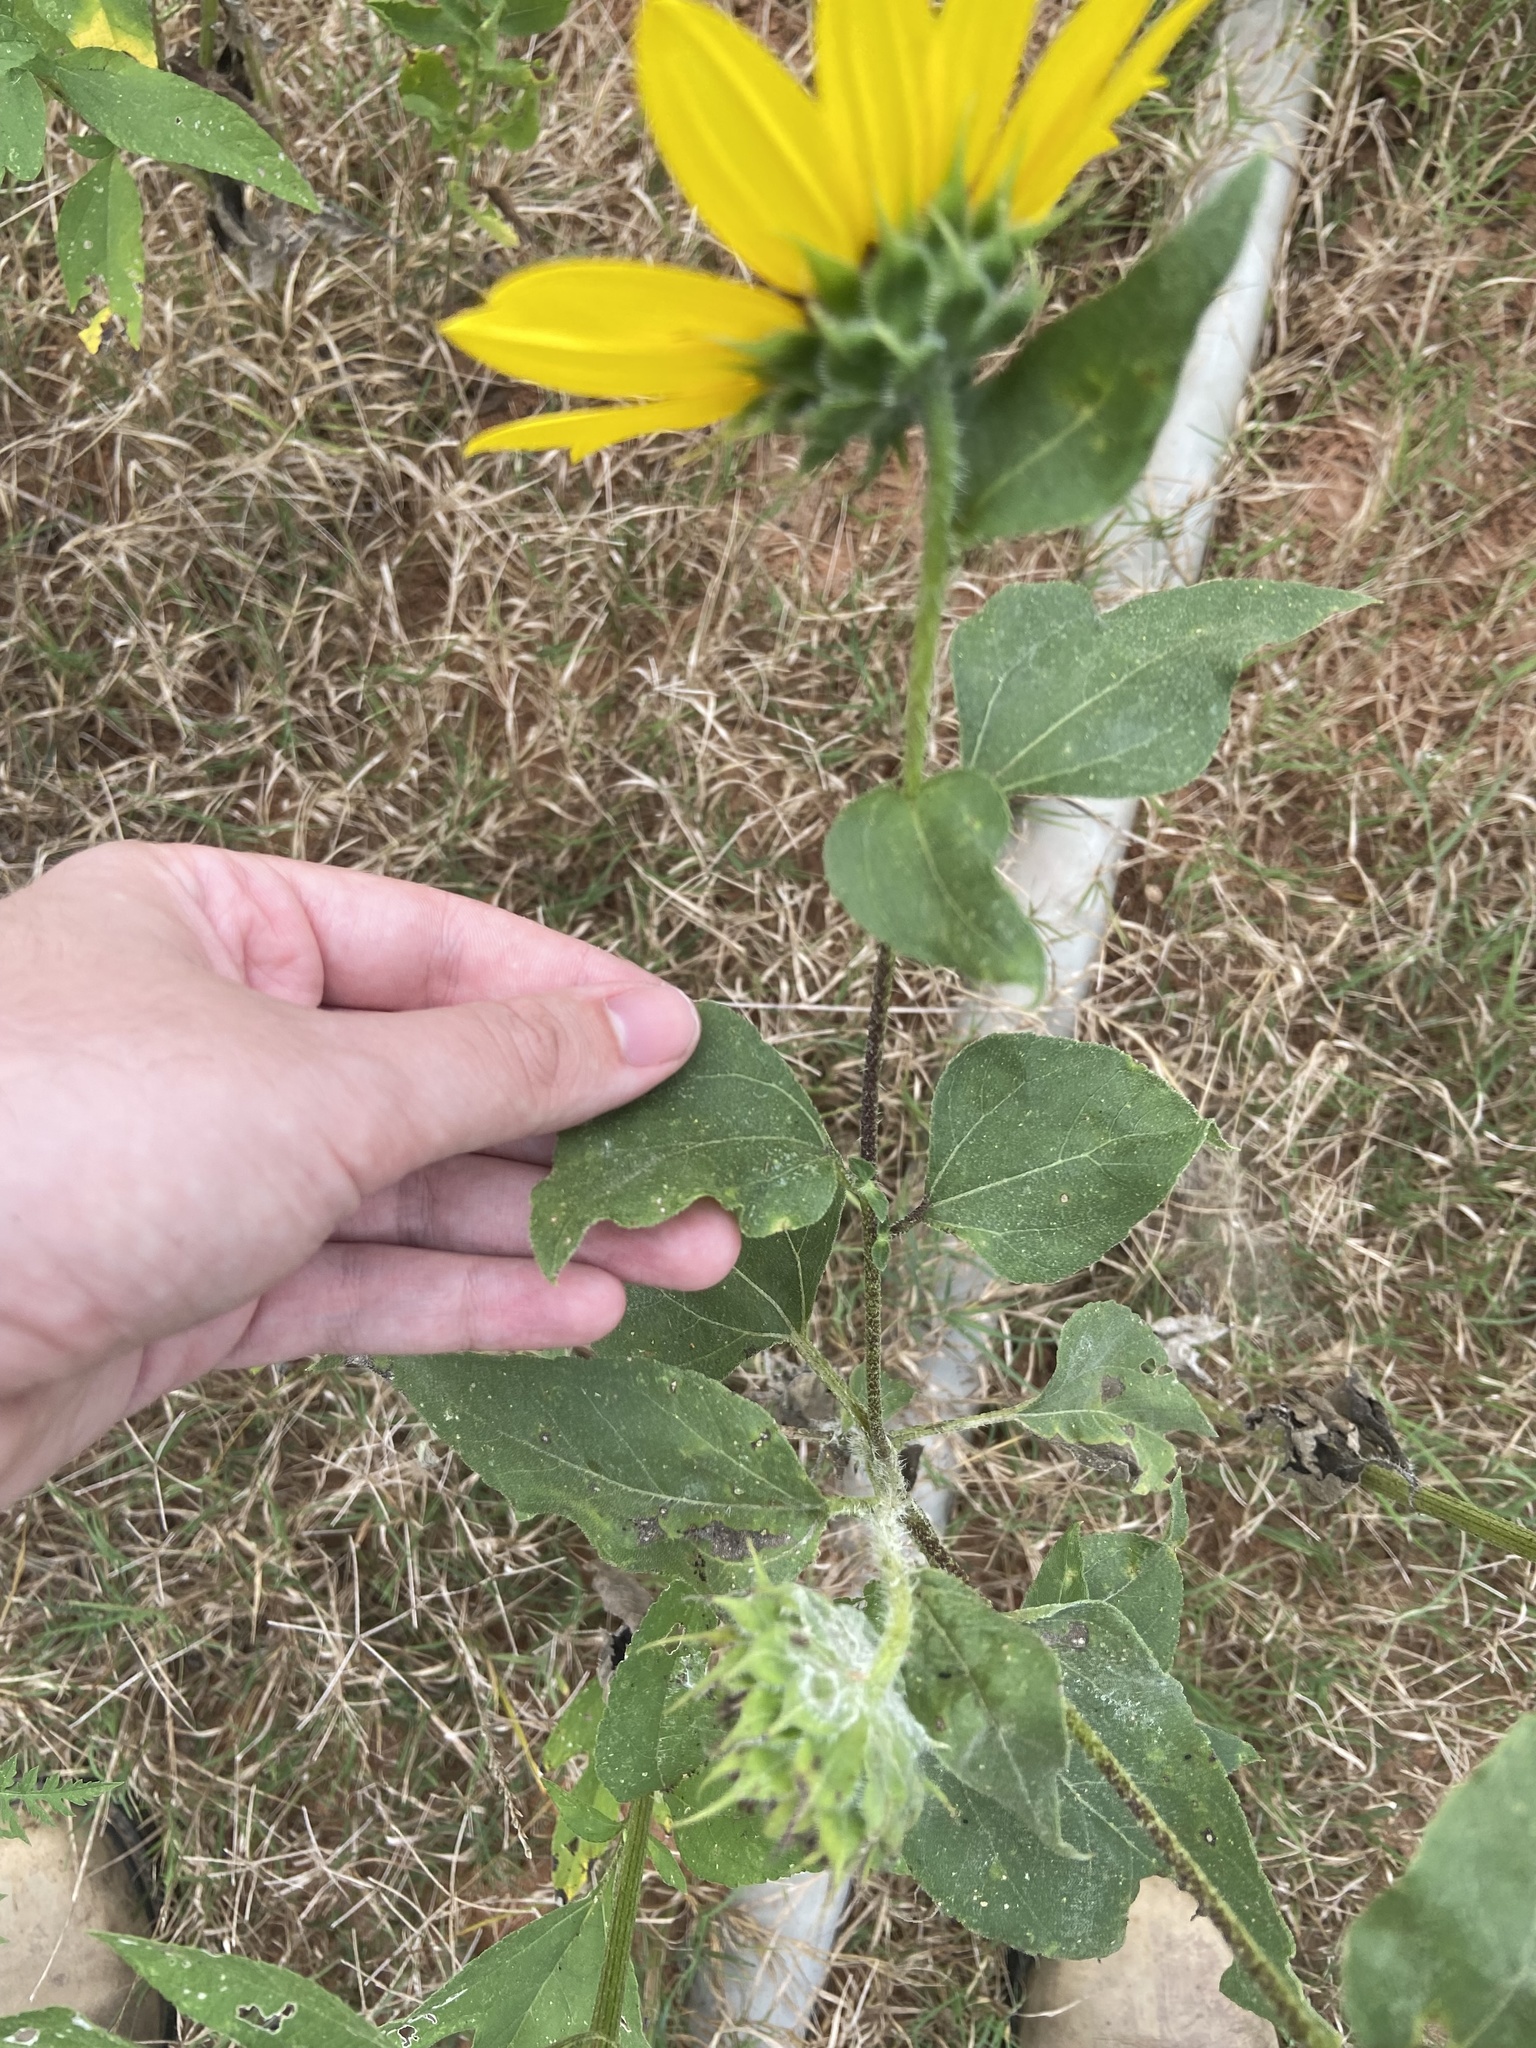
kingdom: Plantae
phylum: Tracheophyta
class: Magnoliopsida
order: Asterales
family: Asteraceae
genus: Helianthus
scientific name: Helianthus annuus
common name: Sunflower
